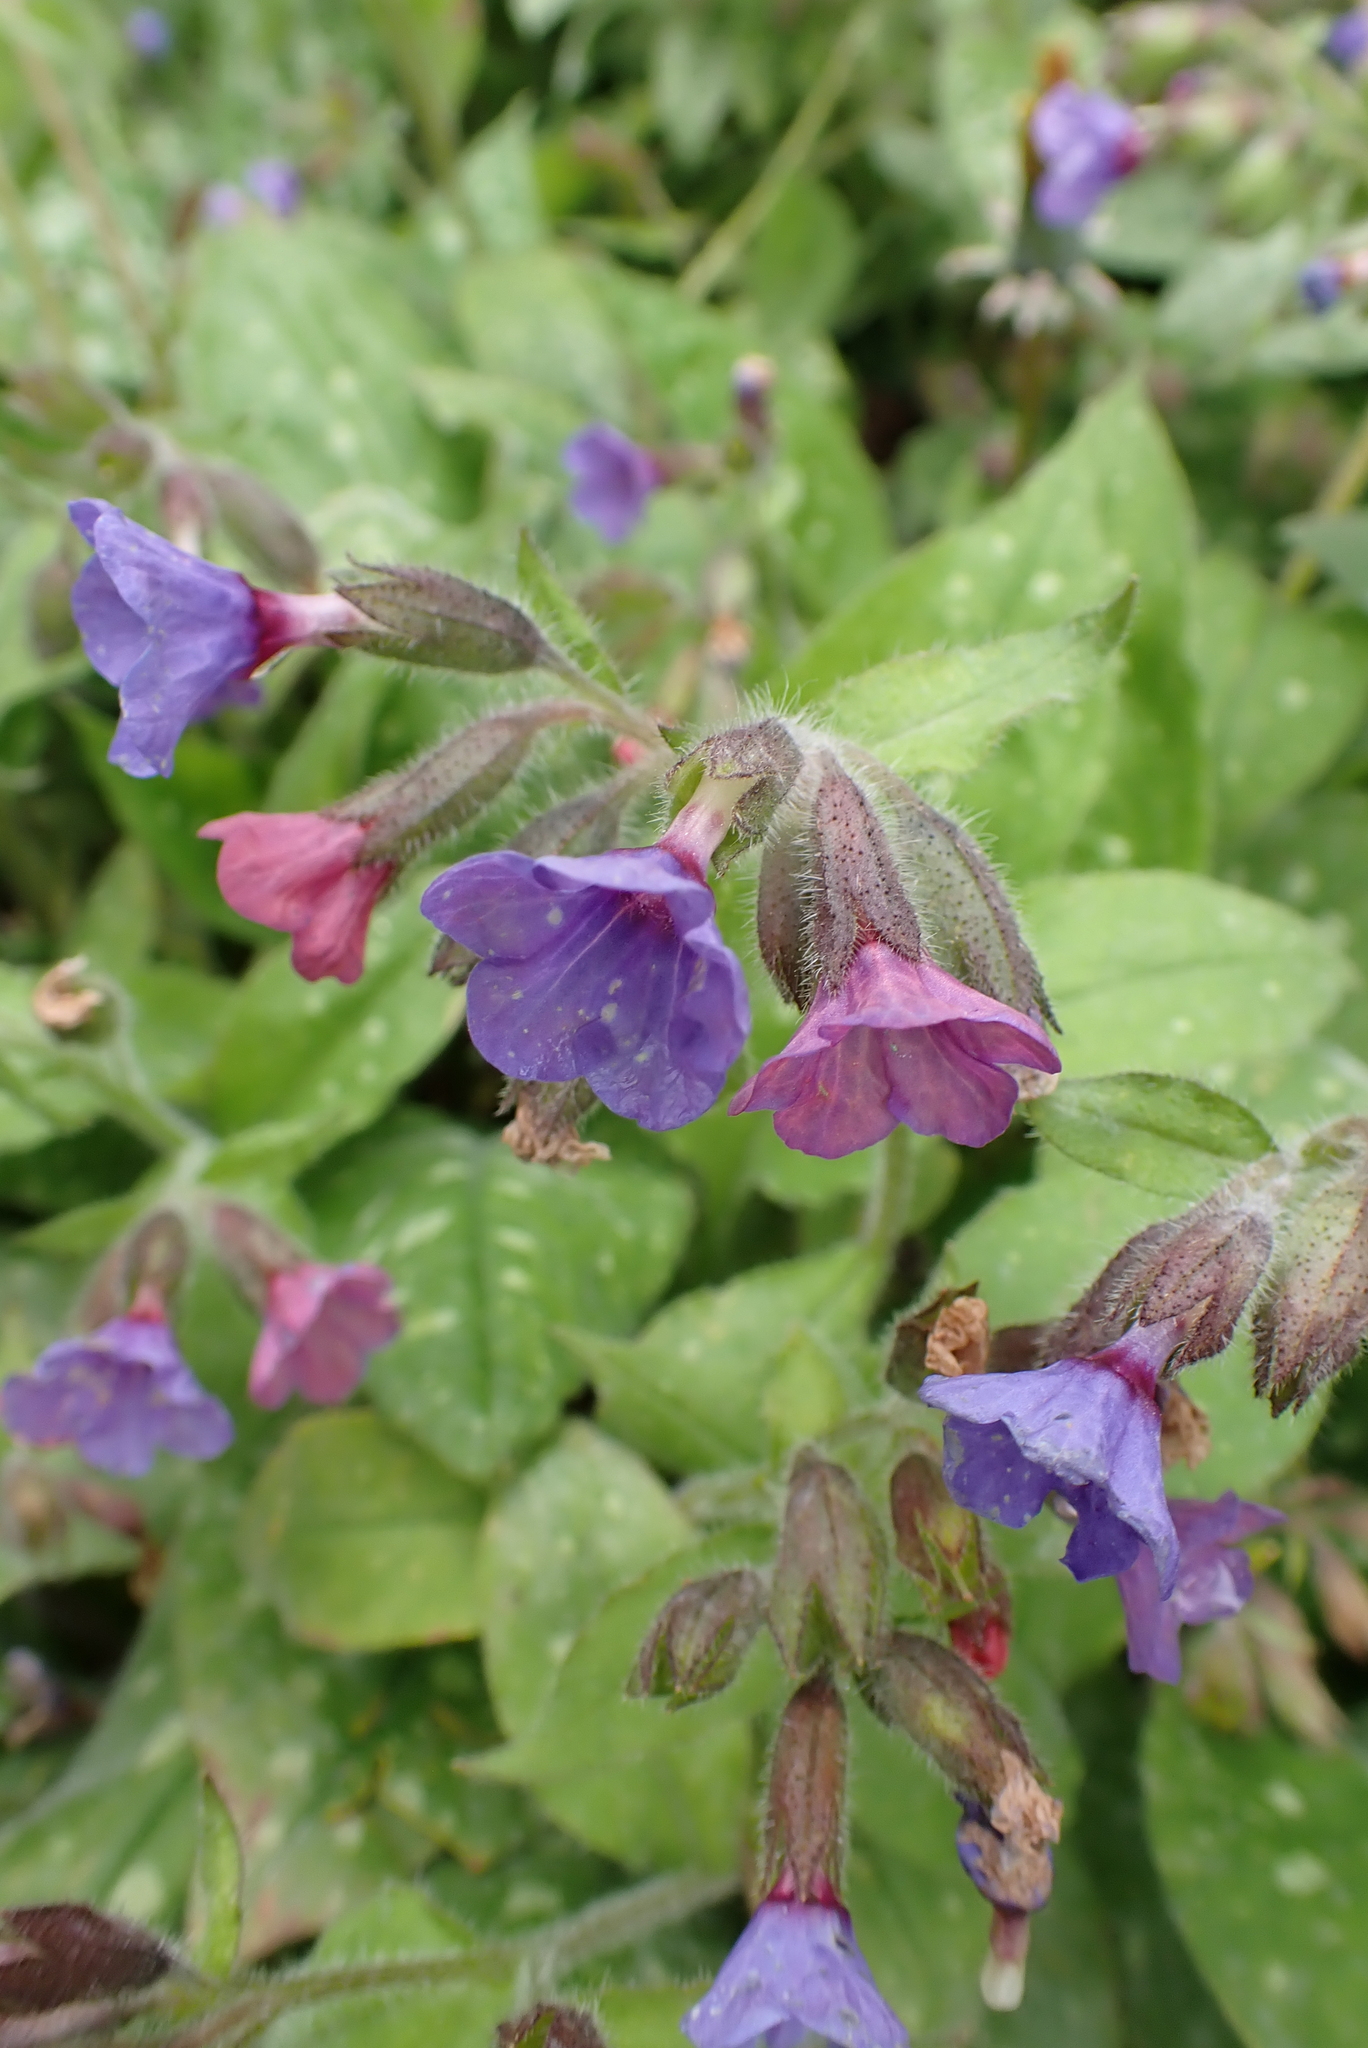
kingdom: Plantae
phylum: Tracheophyta
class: Magnoliopsida
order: Boraginales
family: Boraginaceae
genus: Pulmonaria
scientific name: Pulmonaria officinalis
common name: Lungwort
